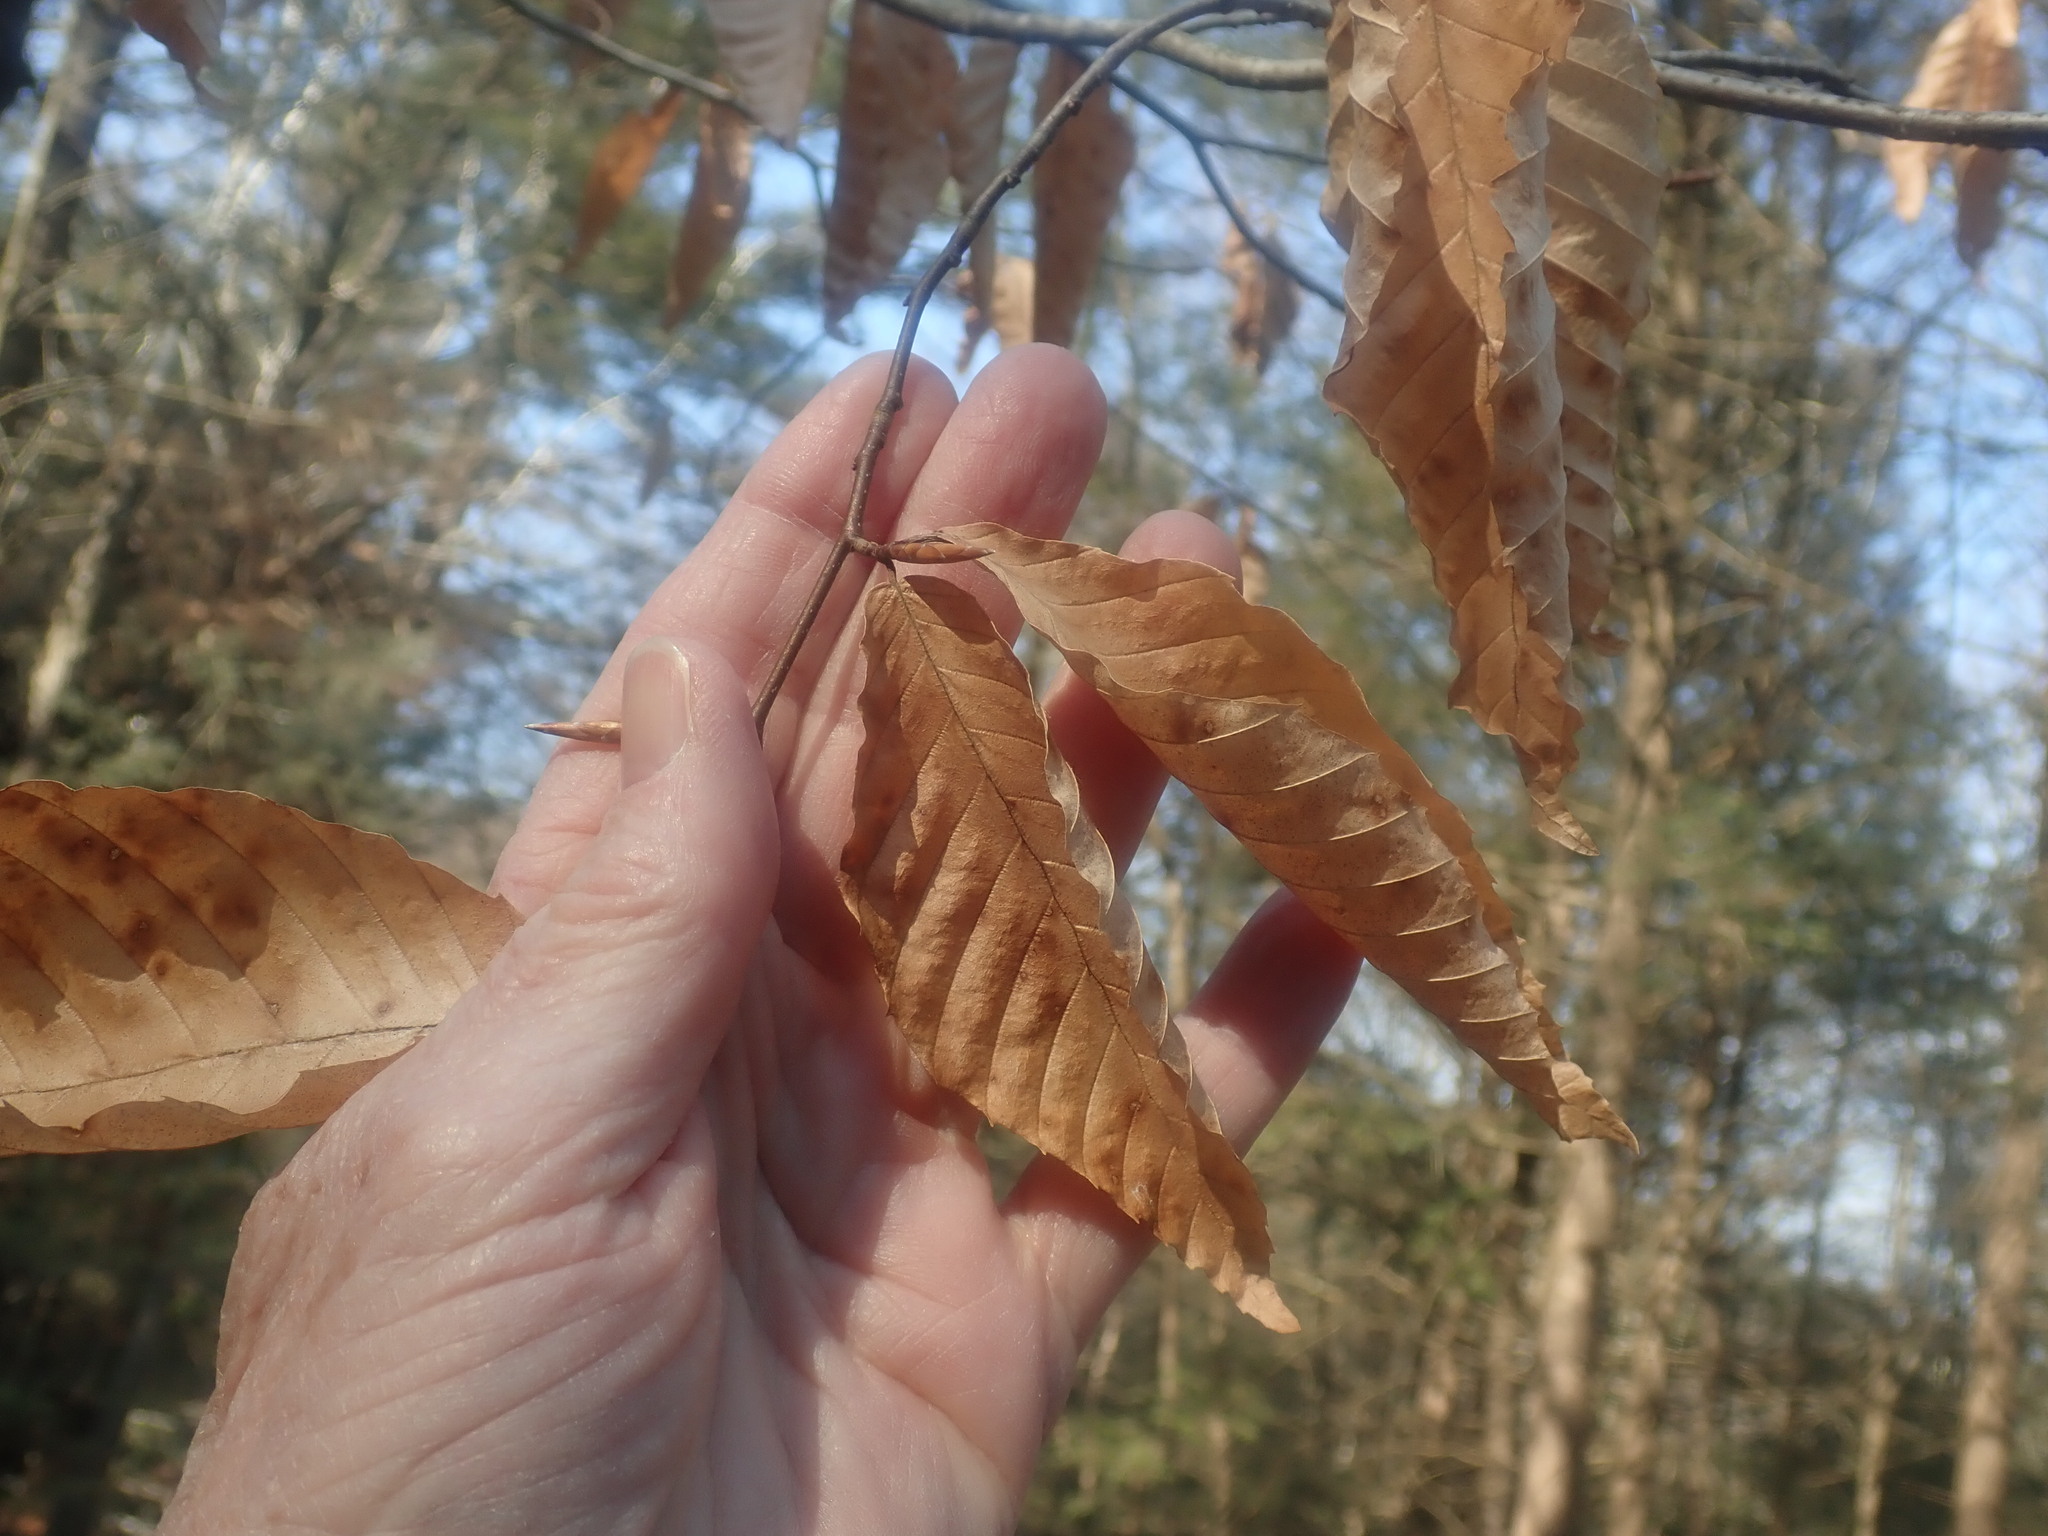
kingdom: Plantae
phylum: Tracheophyta
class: Magnoliopsida
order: Fagales
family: Fagaceae
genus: Fagus
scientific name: Fagus grandifolia
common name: American beech
